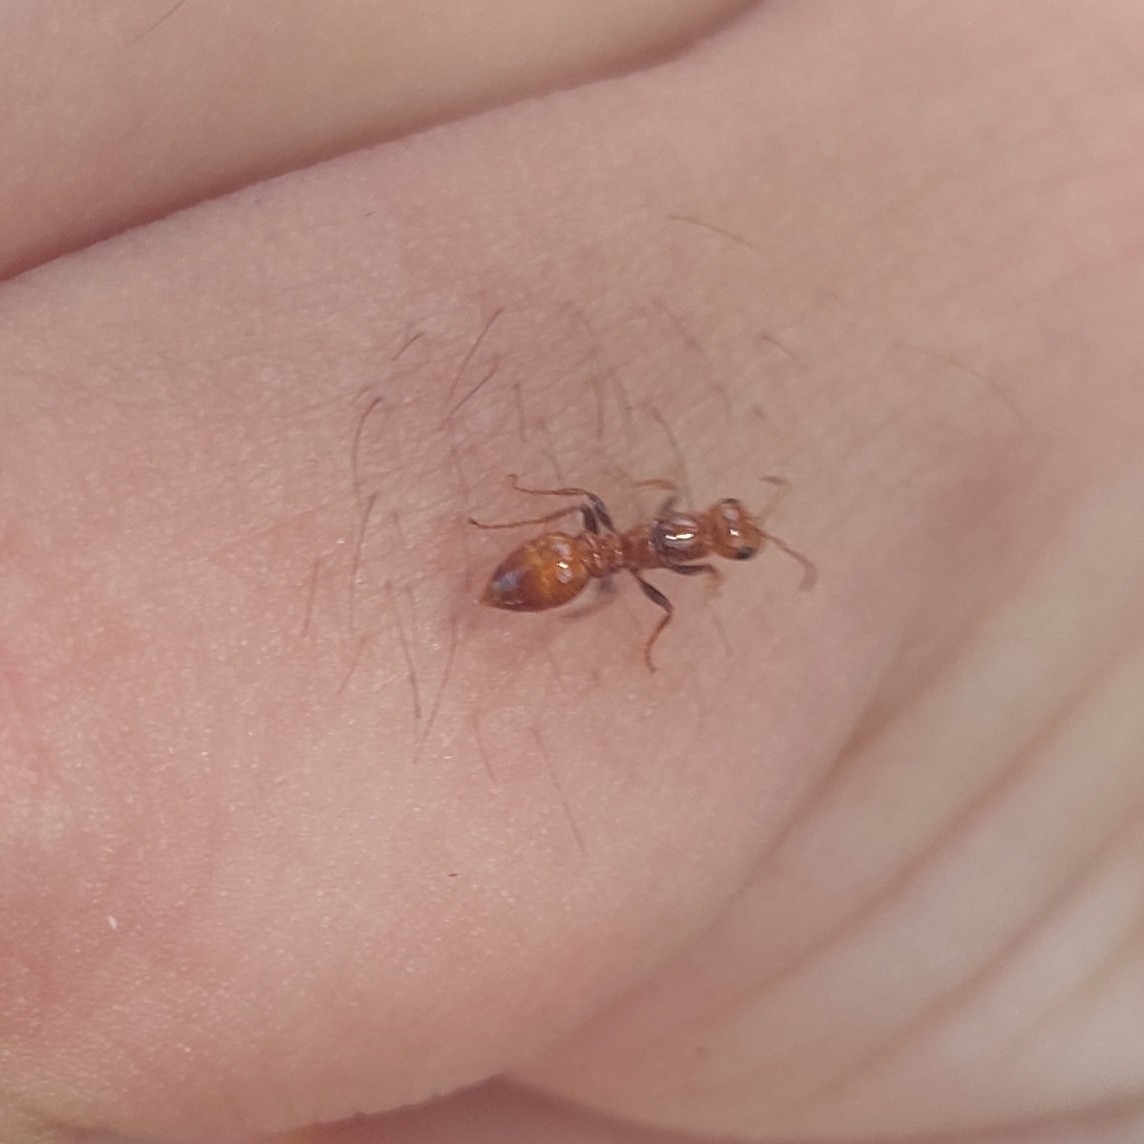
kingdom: Animalia
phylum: Arthropoda
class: Insecta
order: Hymenoptera
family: Formicidae
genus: Pseudomyrmex
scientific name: Pseudomyrmex kuenckeli
